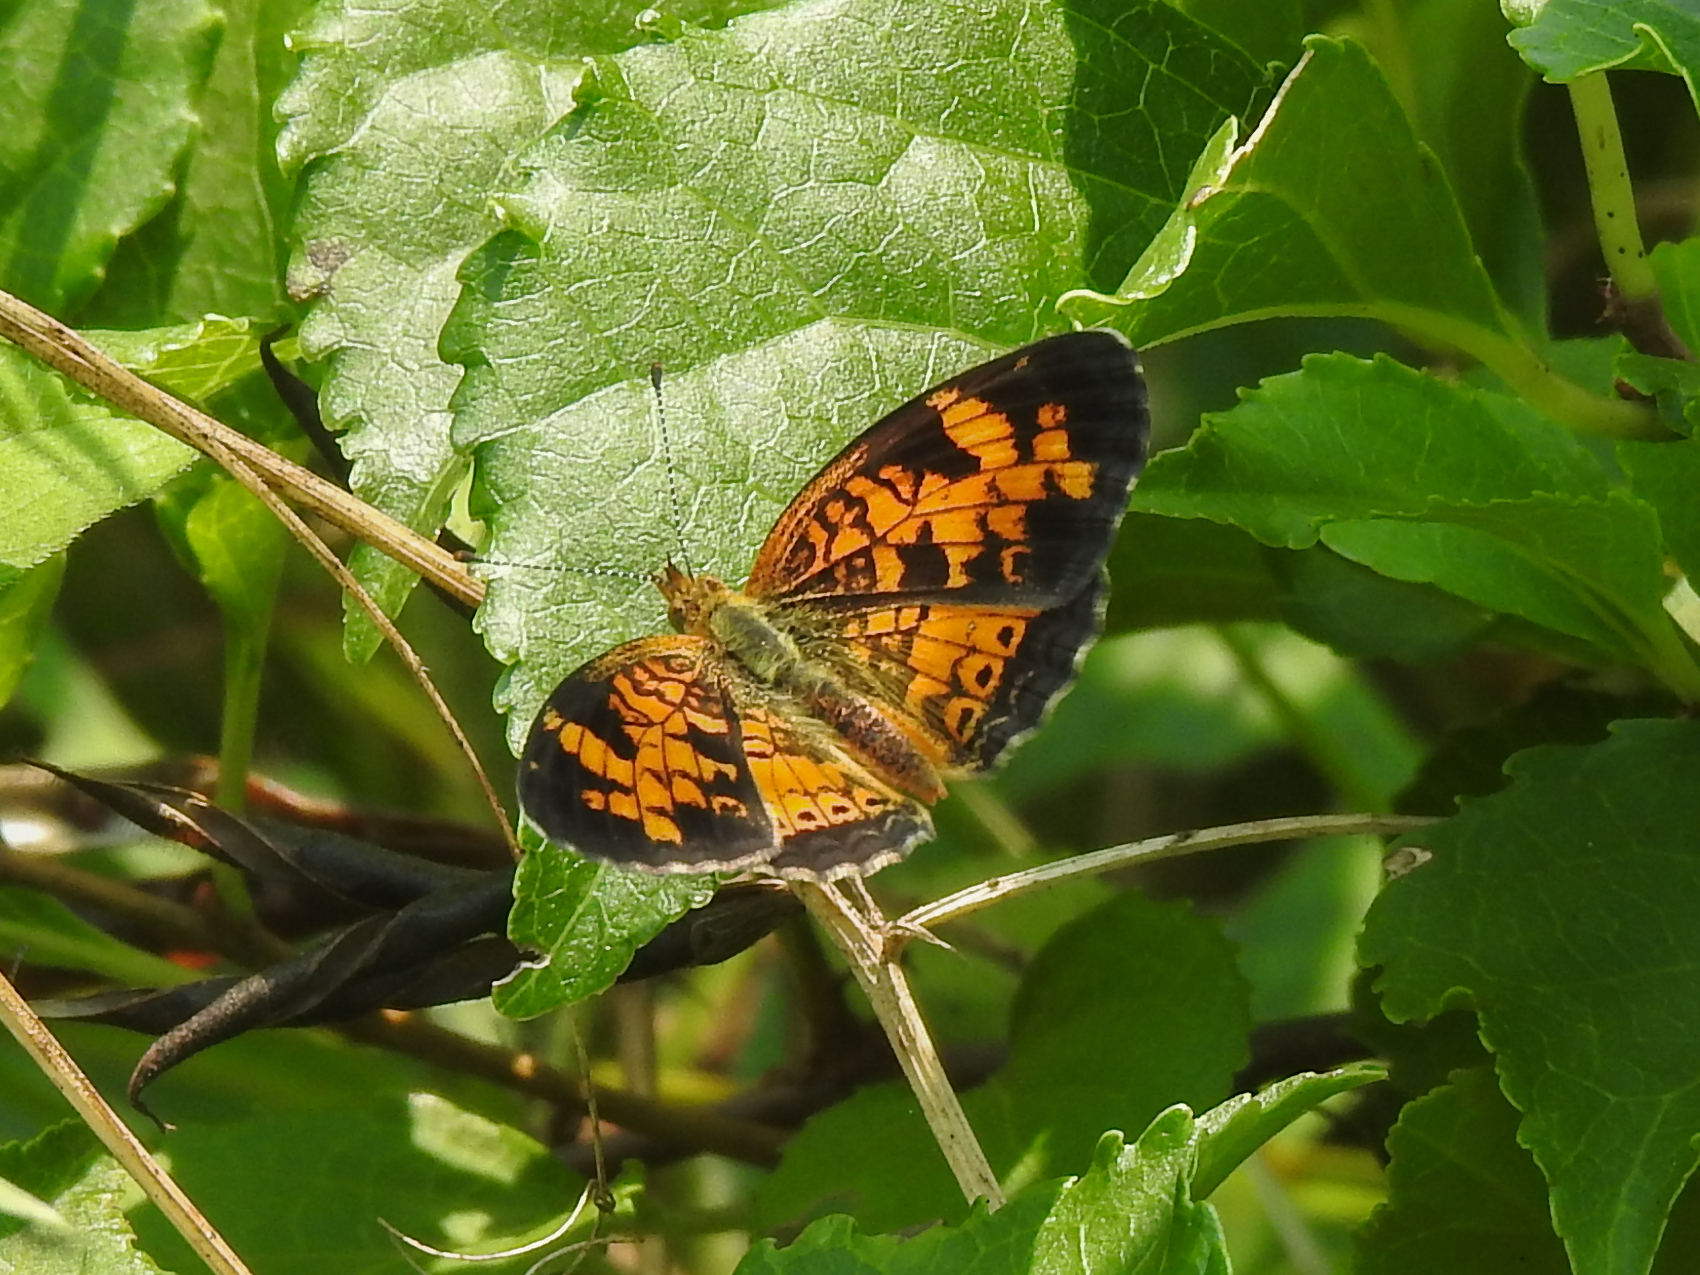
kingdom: Animalia
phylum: Arthropoda
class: Insecta
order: Lepidoptera
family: Nymphalidae
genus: Phyciodes
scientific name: Phyciodes tharos
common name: Pearl crescent
